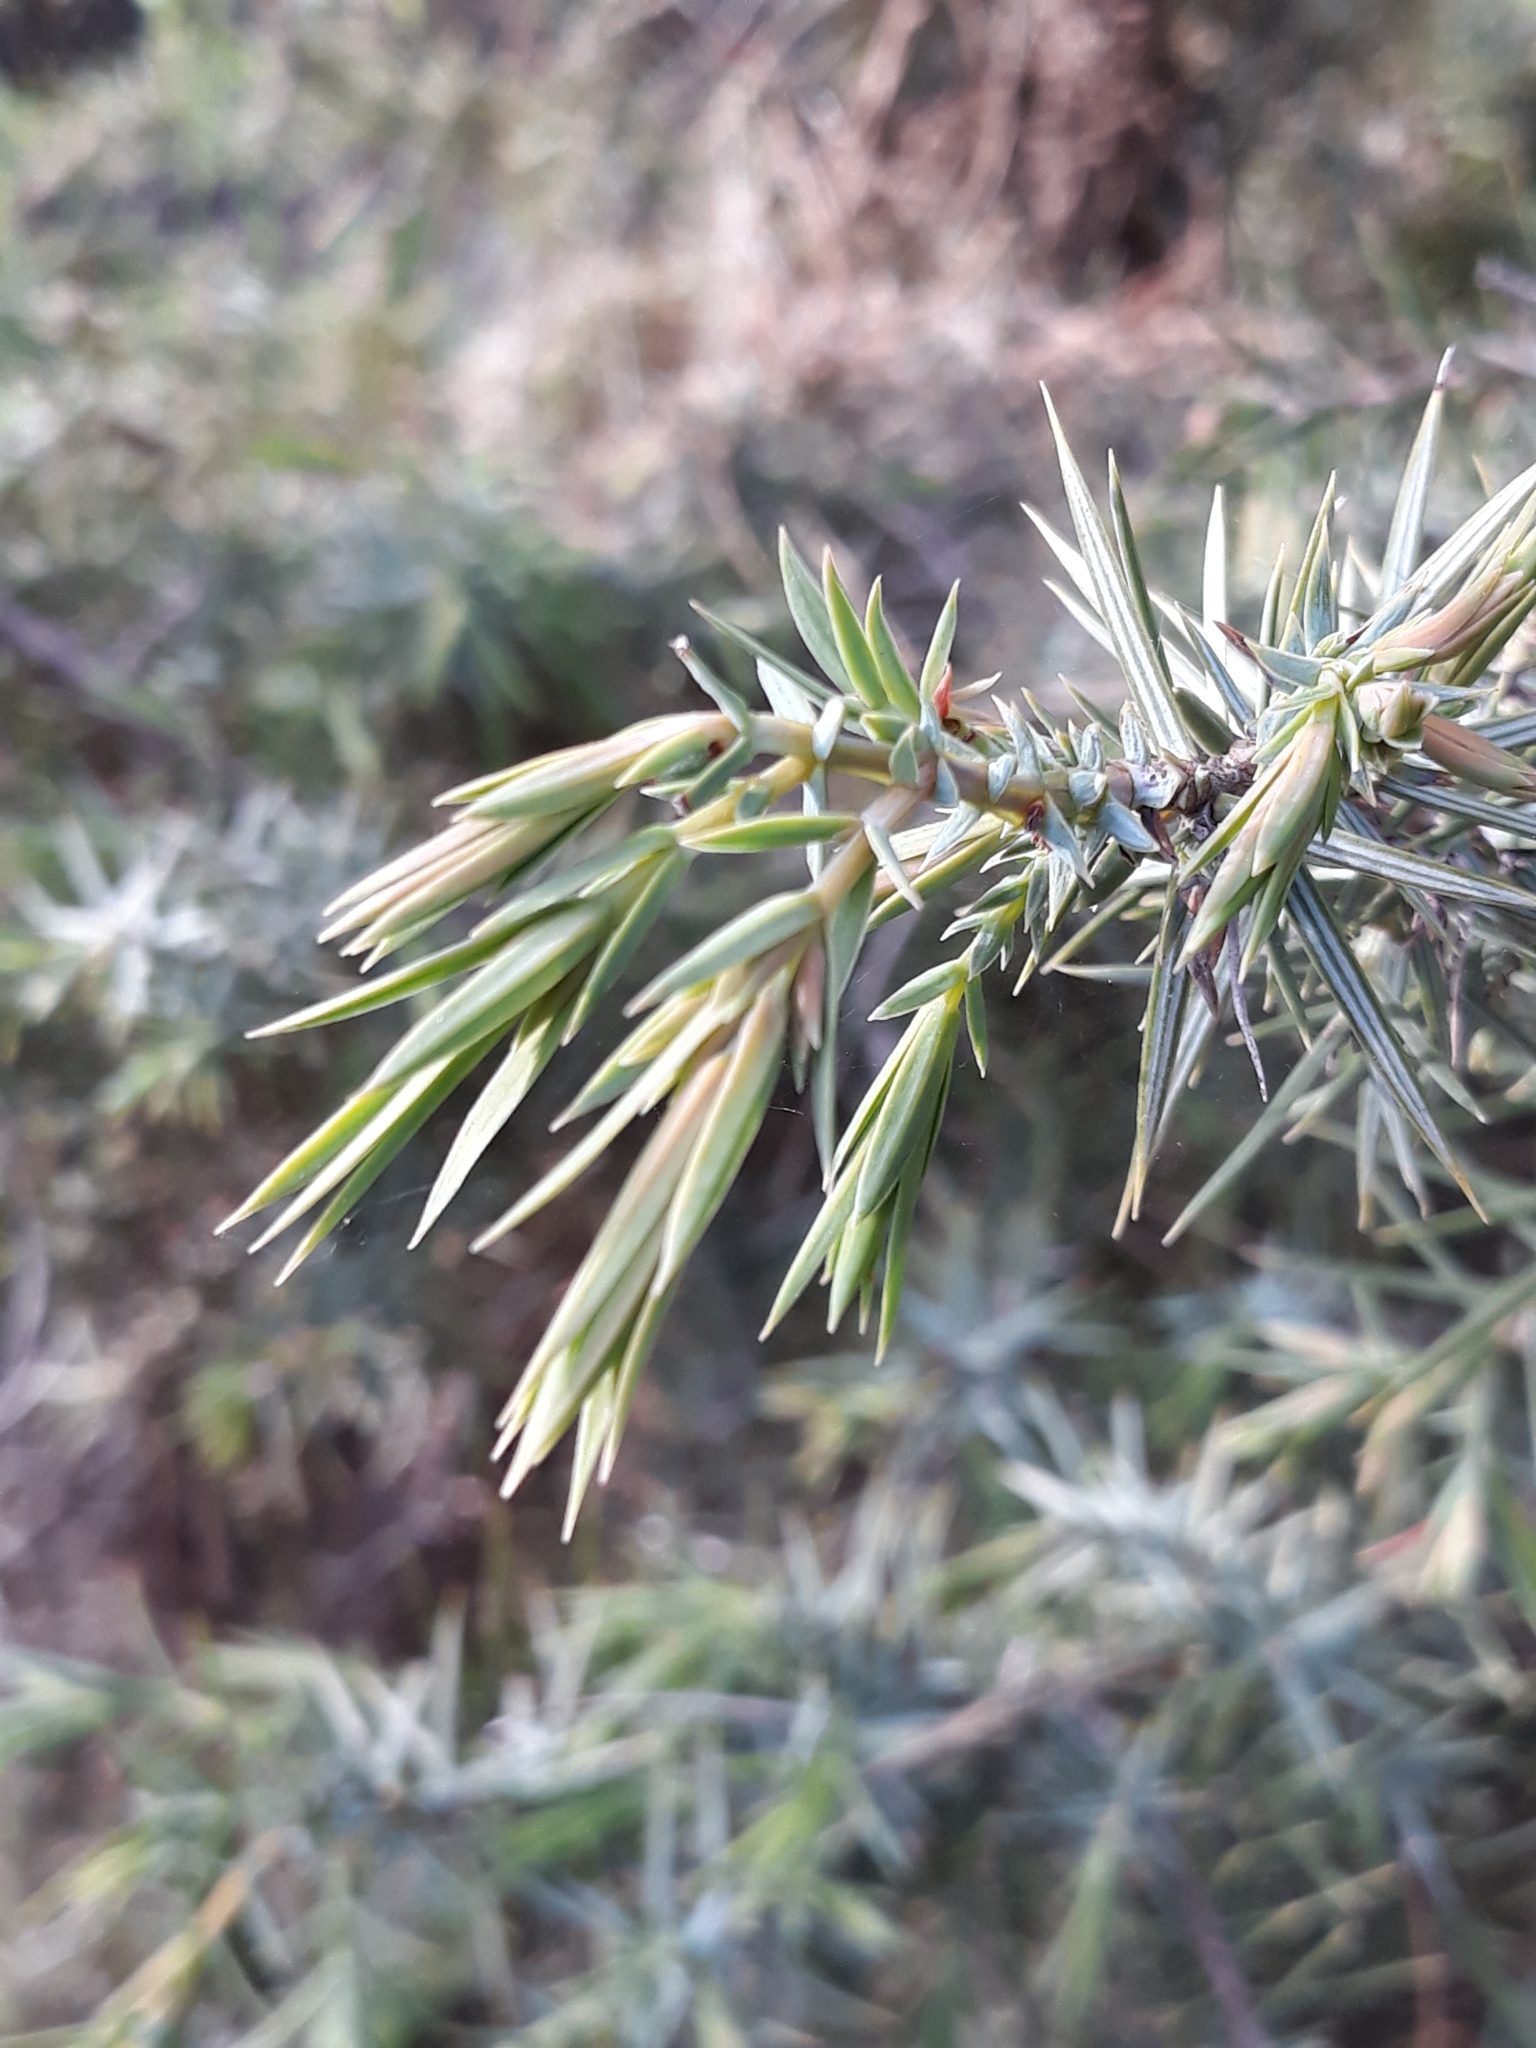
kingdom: Plantae
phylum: Tracheophyta
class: Pinopsida
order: Pinales
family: Cupressaceae
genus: Juniperus
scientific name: Juniperus oxycedrus
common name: Prickly juniper
